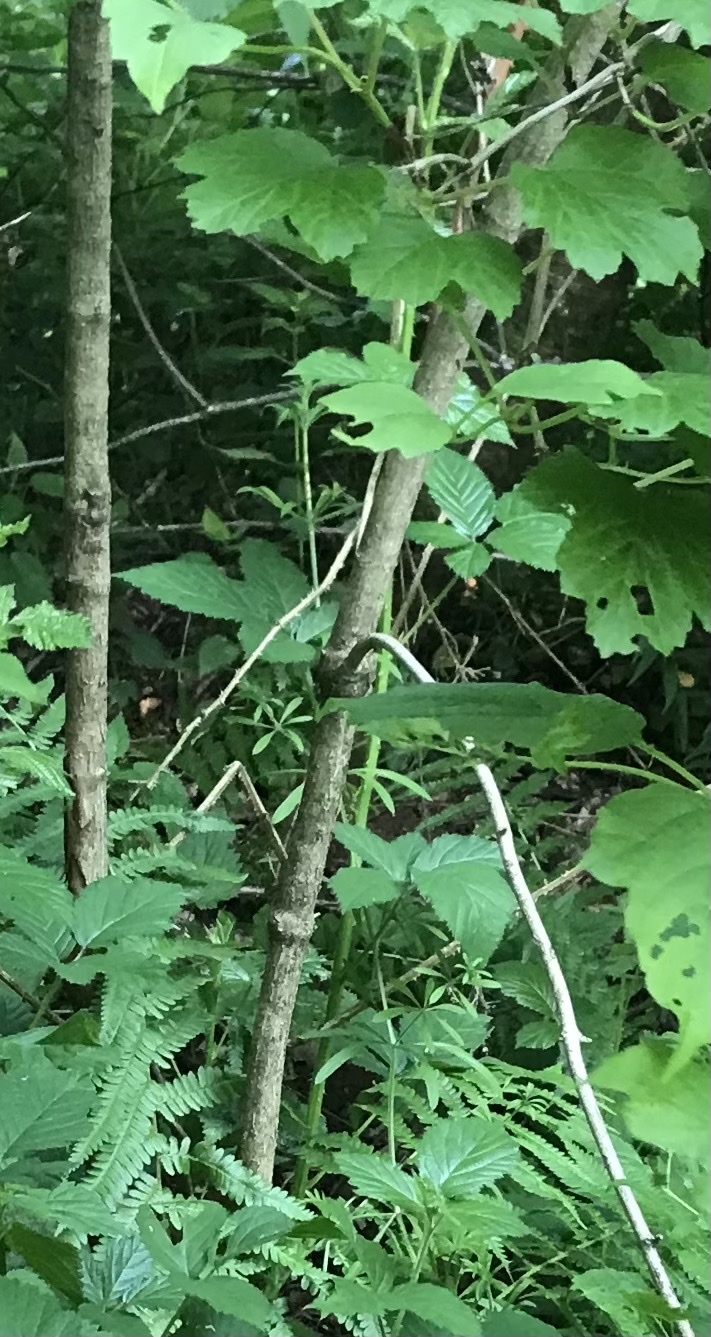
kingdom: Plantae
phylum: Tracheophyta
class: Magnoliopsida
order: Dipsacales
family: Viburnaceae
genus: Viburnum
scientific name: Viburnum opulus
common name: Guelder-rose
